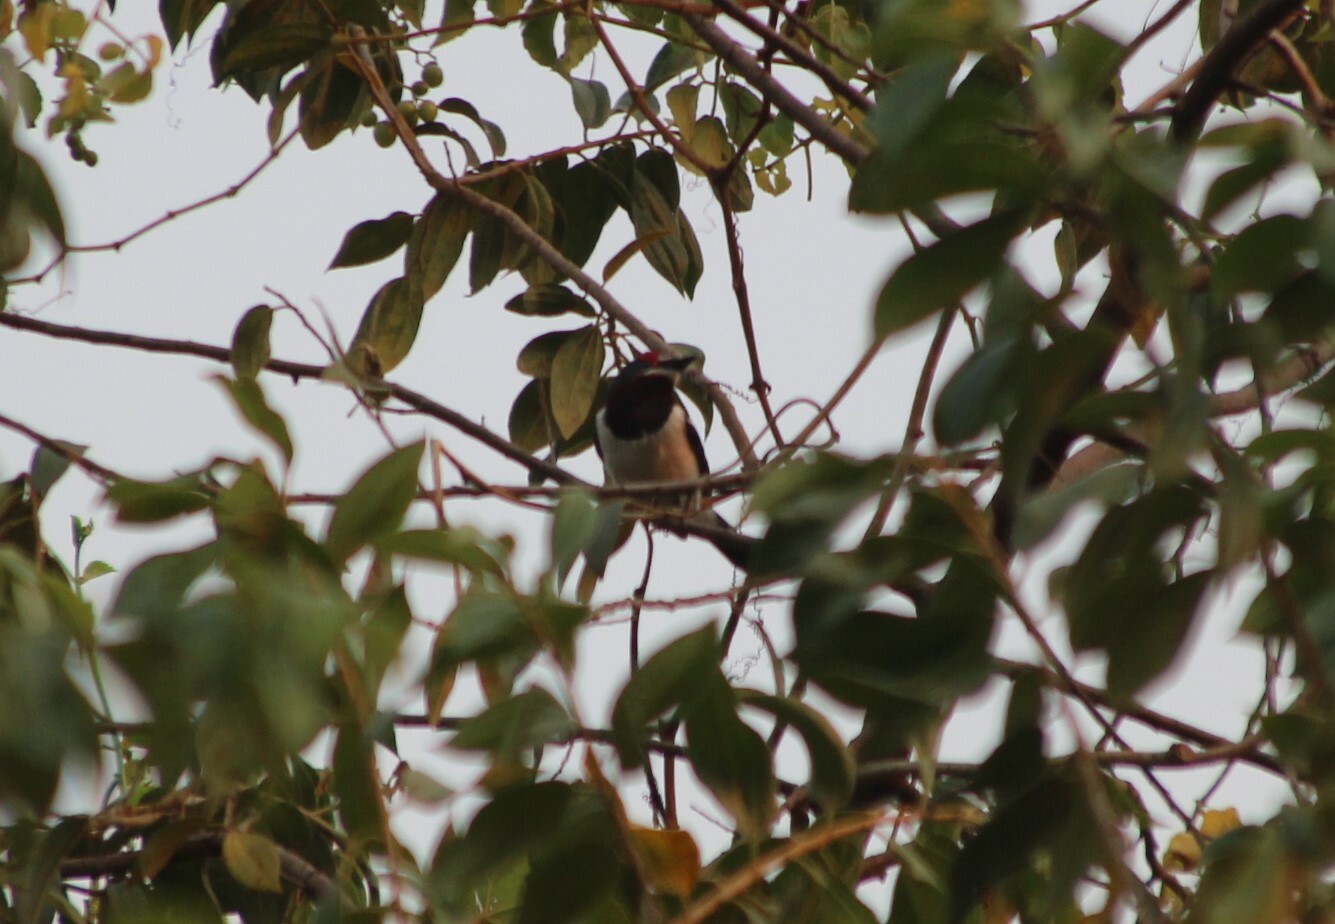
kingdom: Animalia
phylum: Chordata
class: Aves
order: Passeriformes
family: Platysteiridae
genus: Platysteira
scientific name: Platysteira cyanea
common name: Brown-throated wattle-eye
